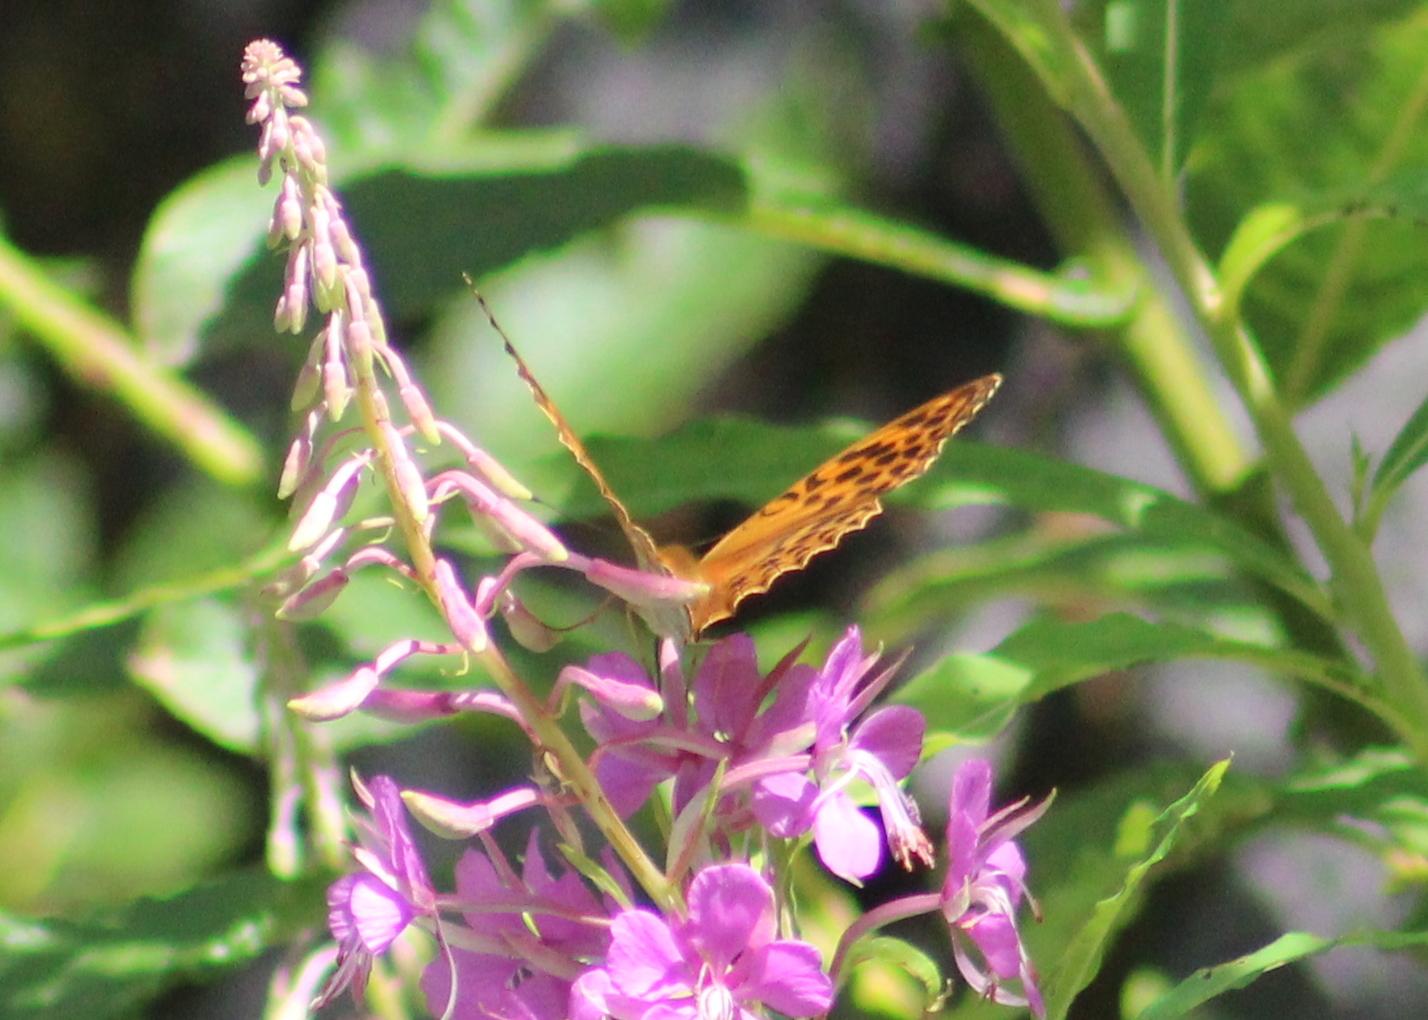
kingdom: Animalia
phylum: Arthropoda
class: Insecta
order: Lepidoptera
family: Nymphalidae
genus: Argynnis
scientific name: Argynnis paphia
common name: Silver-washed fritillary
